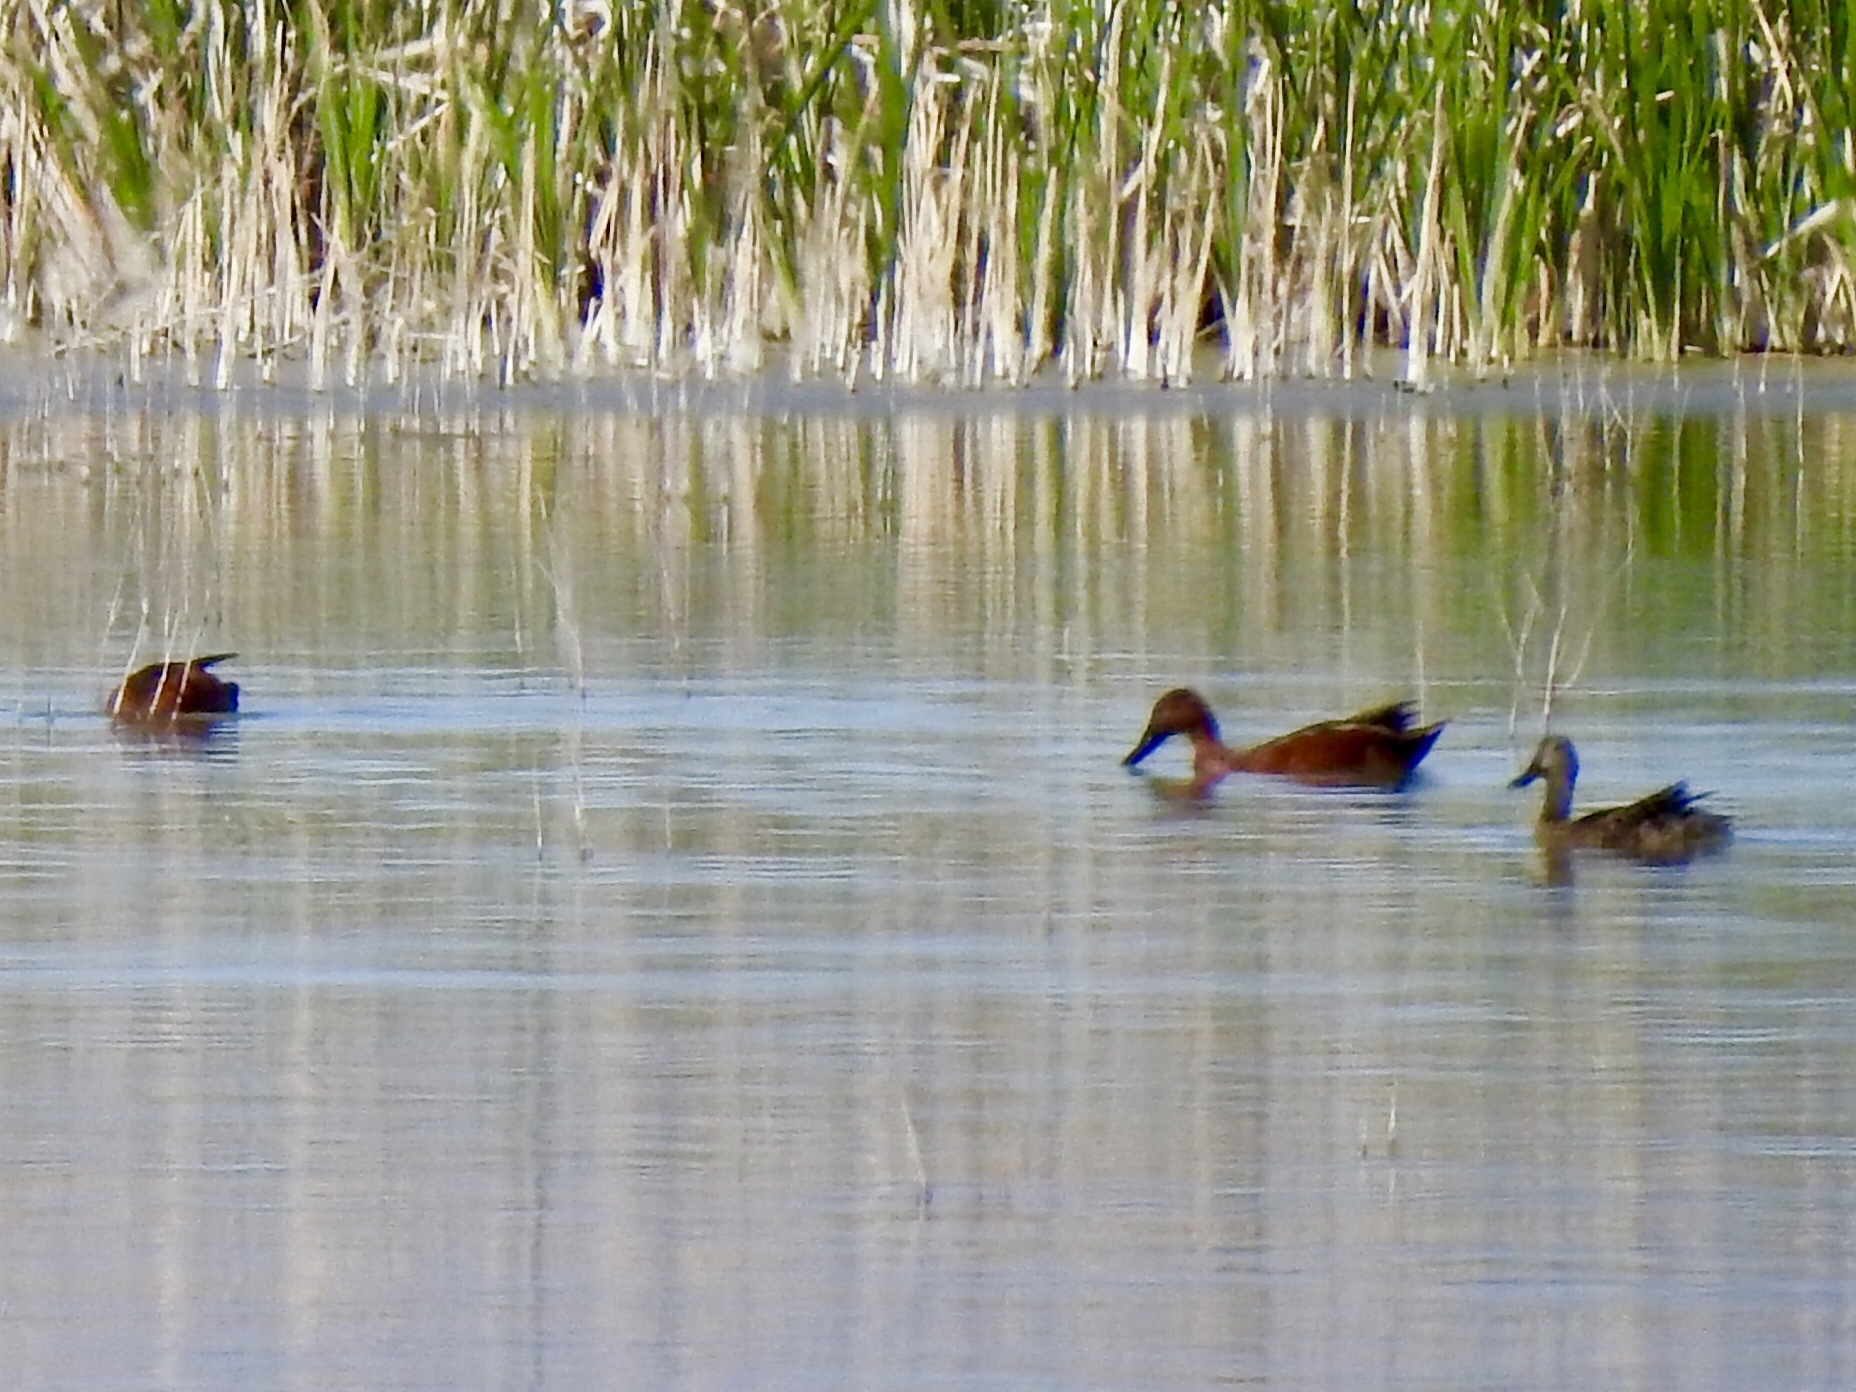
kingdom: Animalia
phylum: Chordata
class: Aves
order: Anseriformes
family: Anatidae
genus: Spatula
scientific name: Spatula cyanoptera
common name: Cinnamon teal
